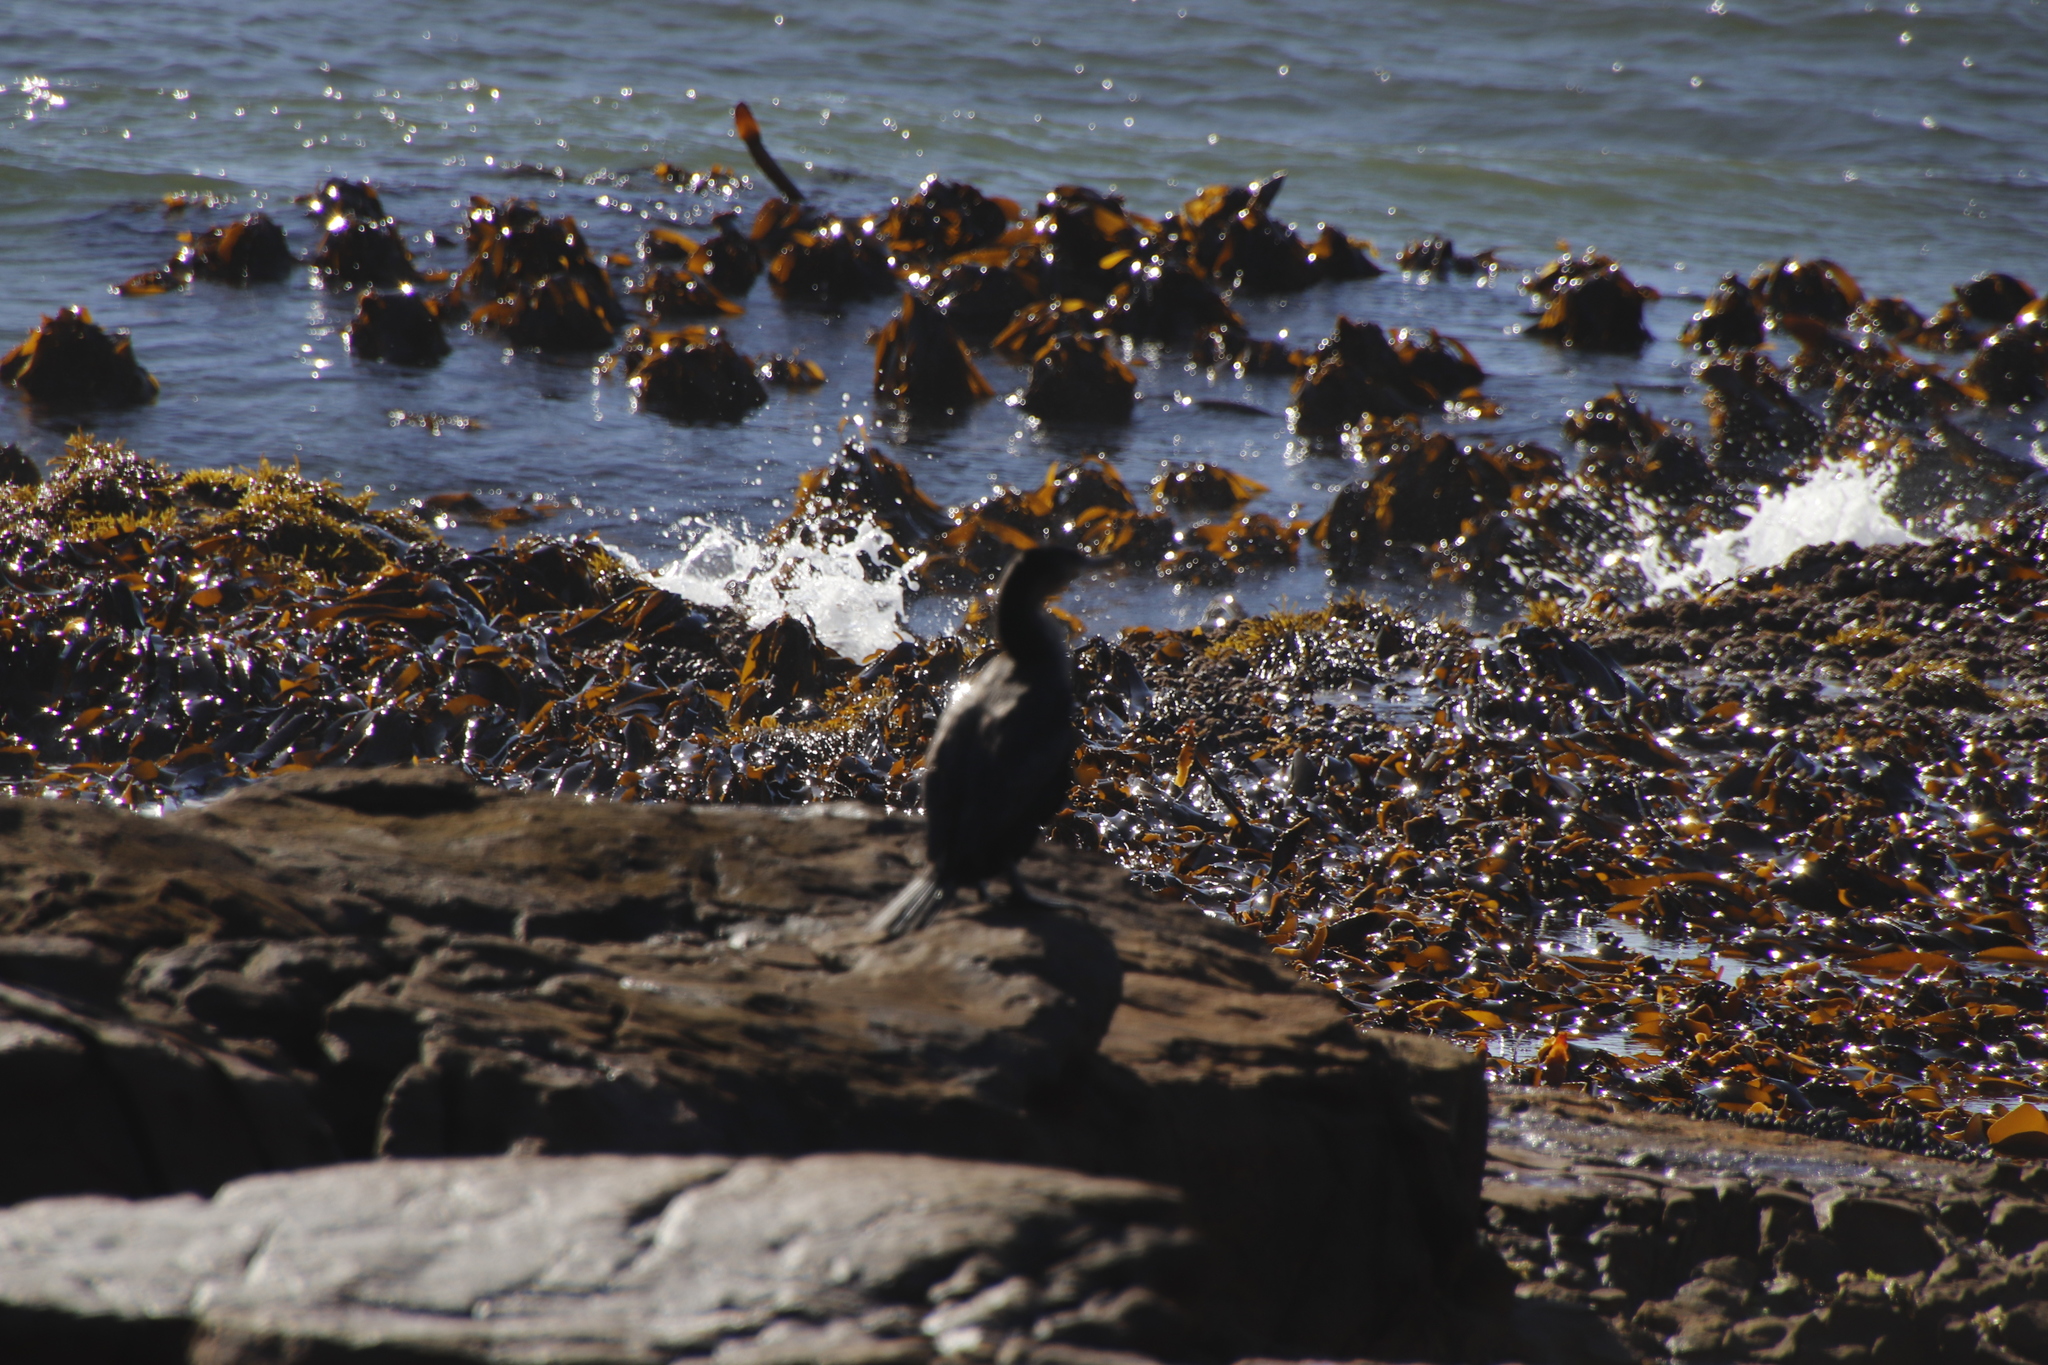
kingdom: Animalia
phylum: Chordata
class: Aves
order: Suliformes
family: Phalacrocoracidae
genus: Phalacrocorax
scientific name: Phalacrocorax capensis
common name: Cape cormorant
